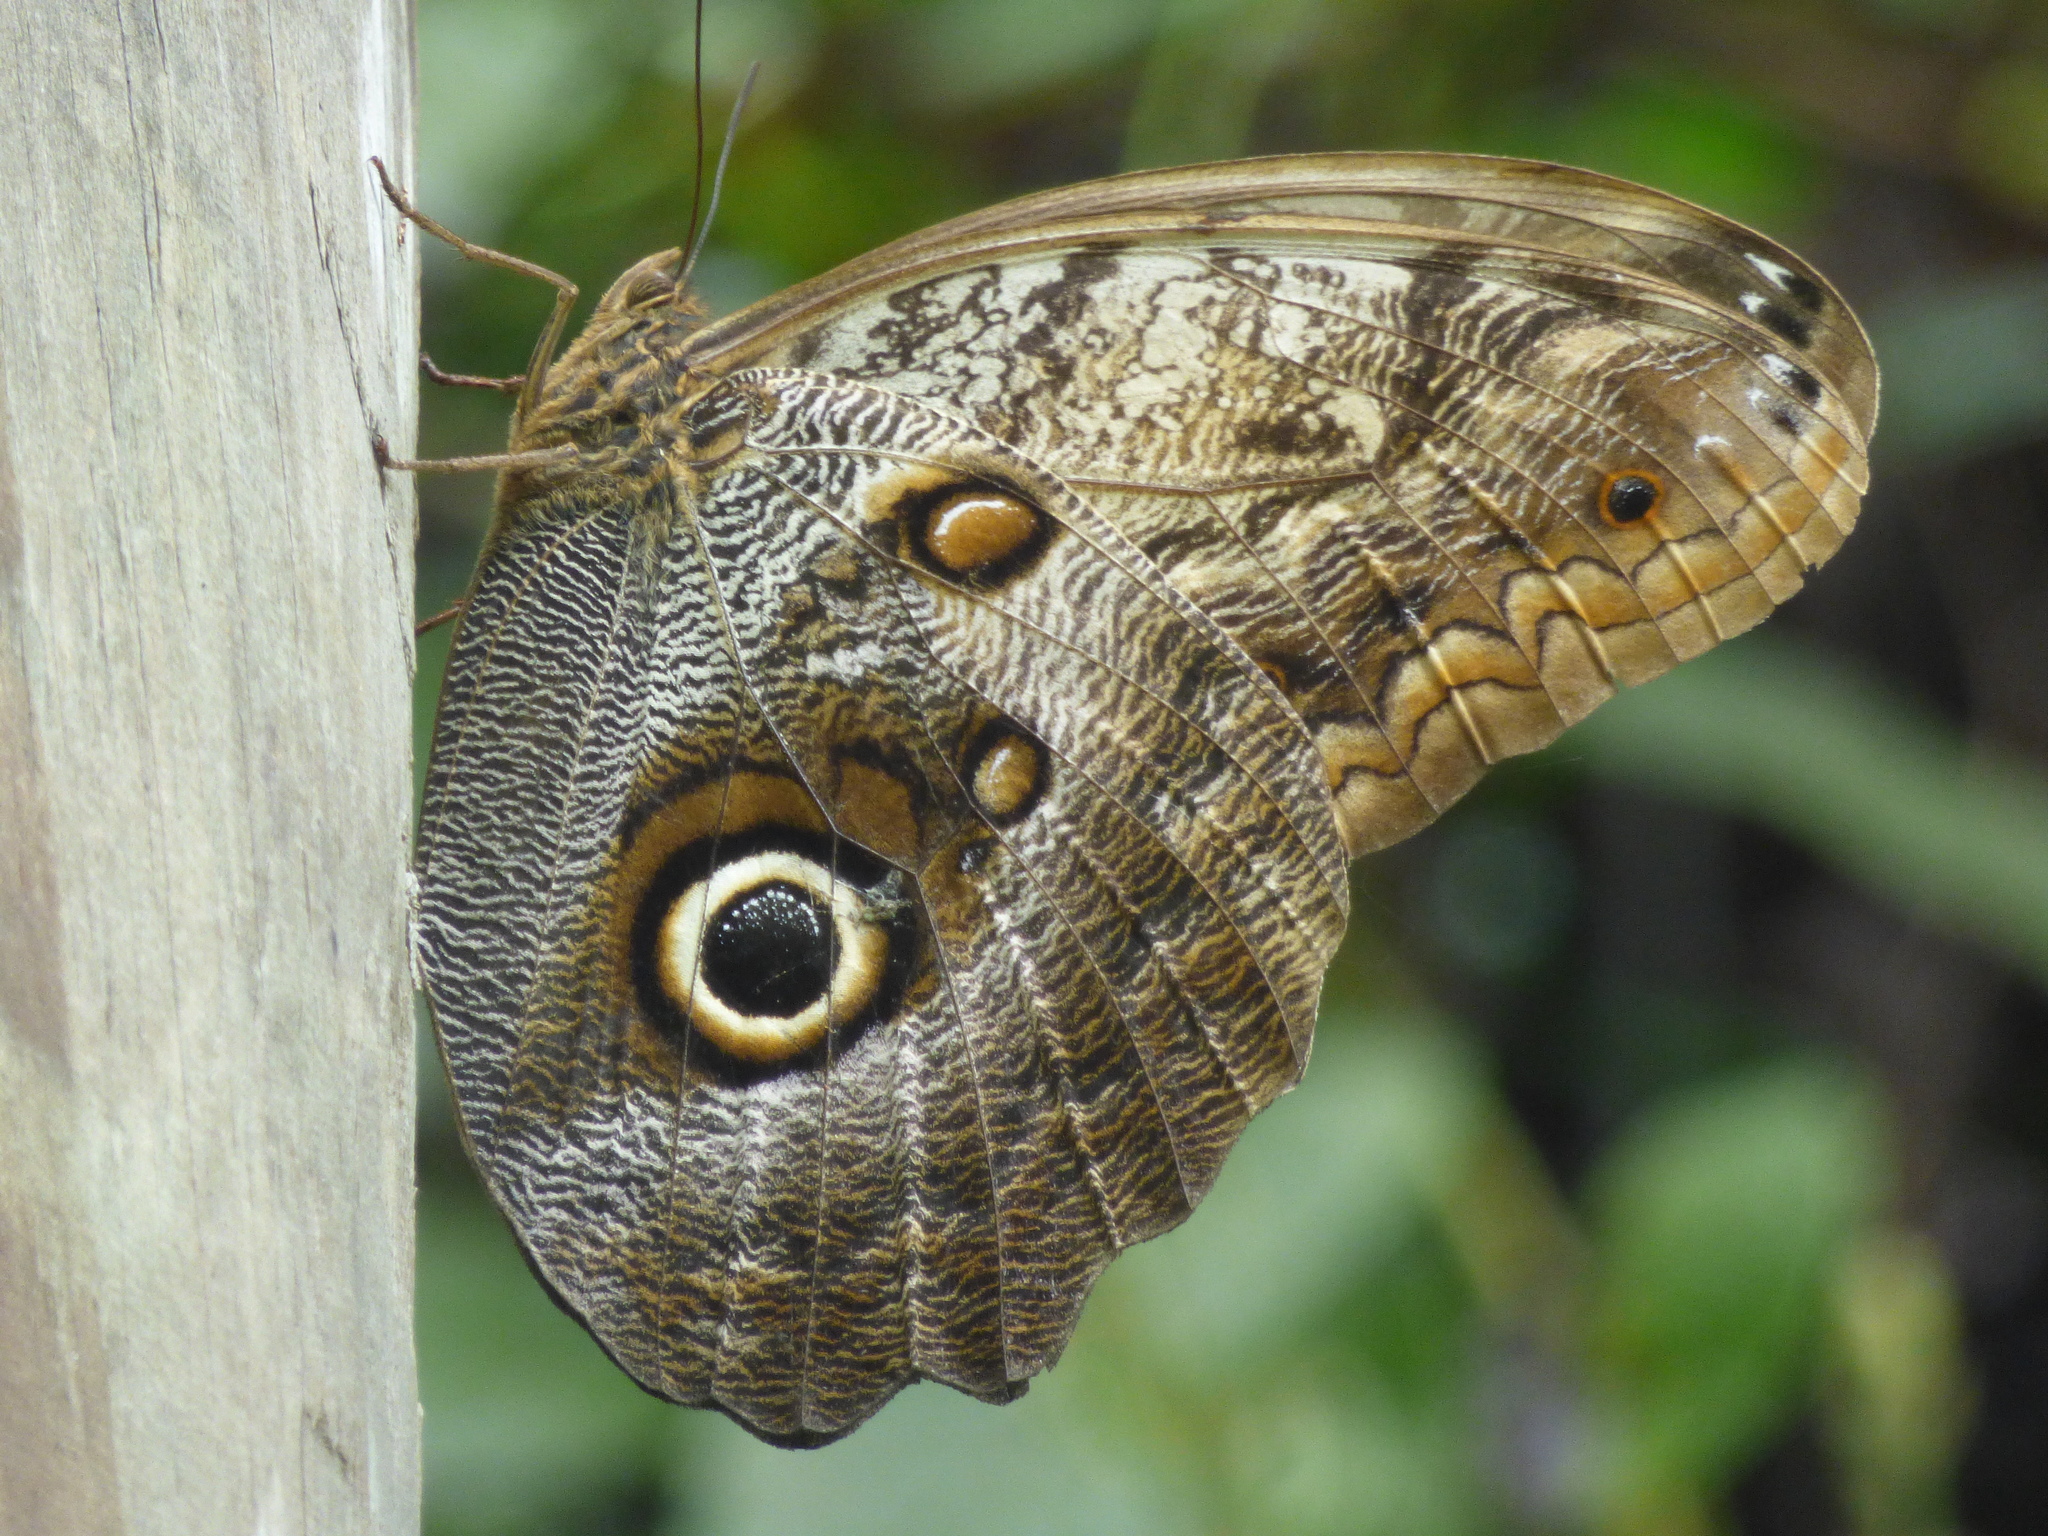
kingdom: Animalia
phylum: Arthropoda
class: Insecta
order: Lepidoptera
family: Nymphalidae
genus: Caligo
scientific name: Caligo telamonius
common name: Pale owl-butterfly
